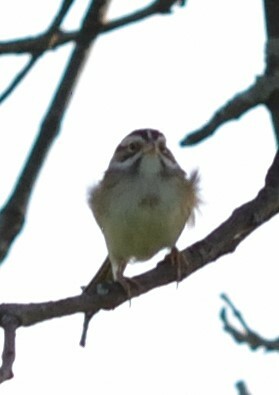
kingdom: Animalia
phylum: Chordata
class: Aves
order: Passeriformes
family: Passerellidae
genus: Spizella
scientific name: Spizella pallida
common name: Clay-colored sparrow
